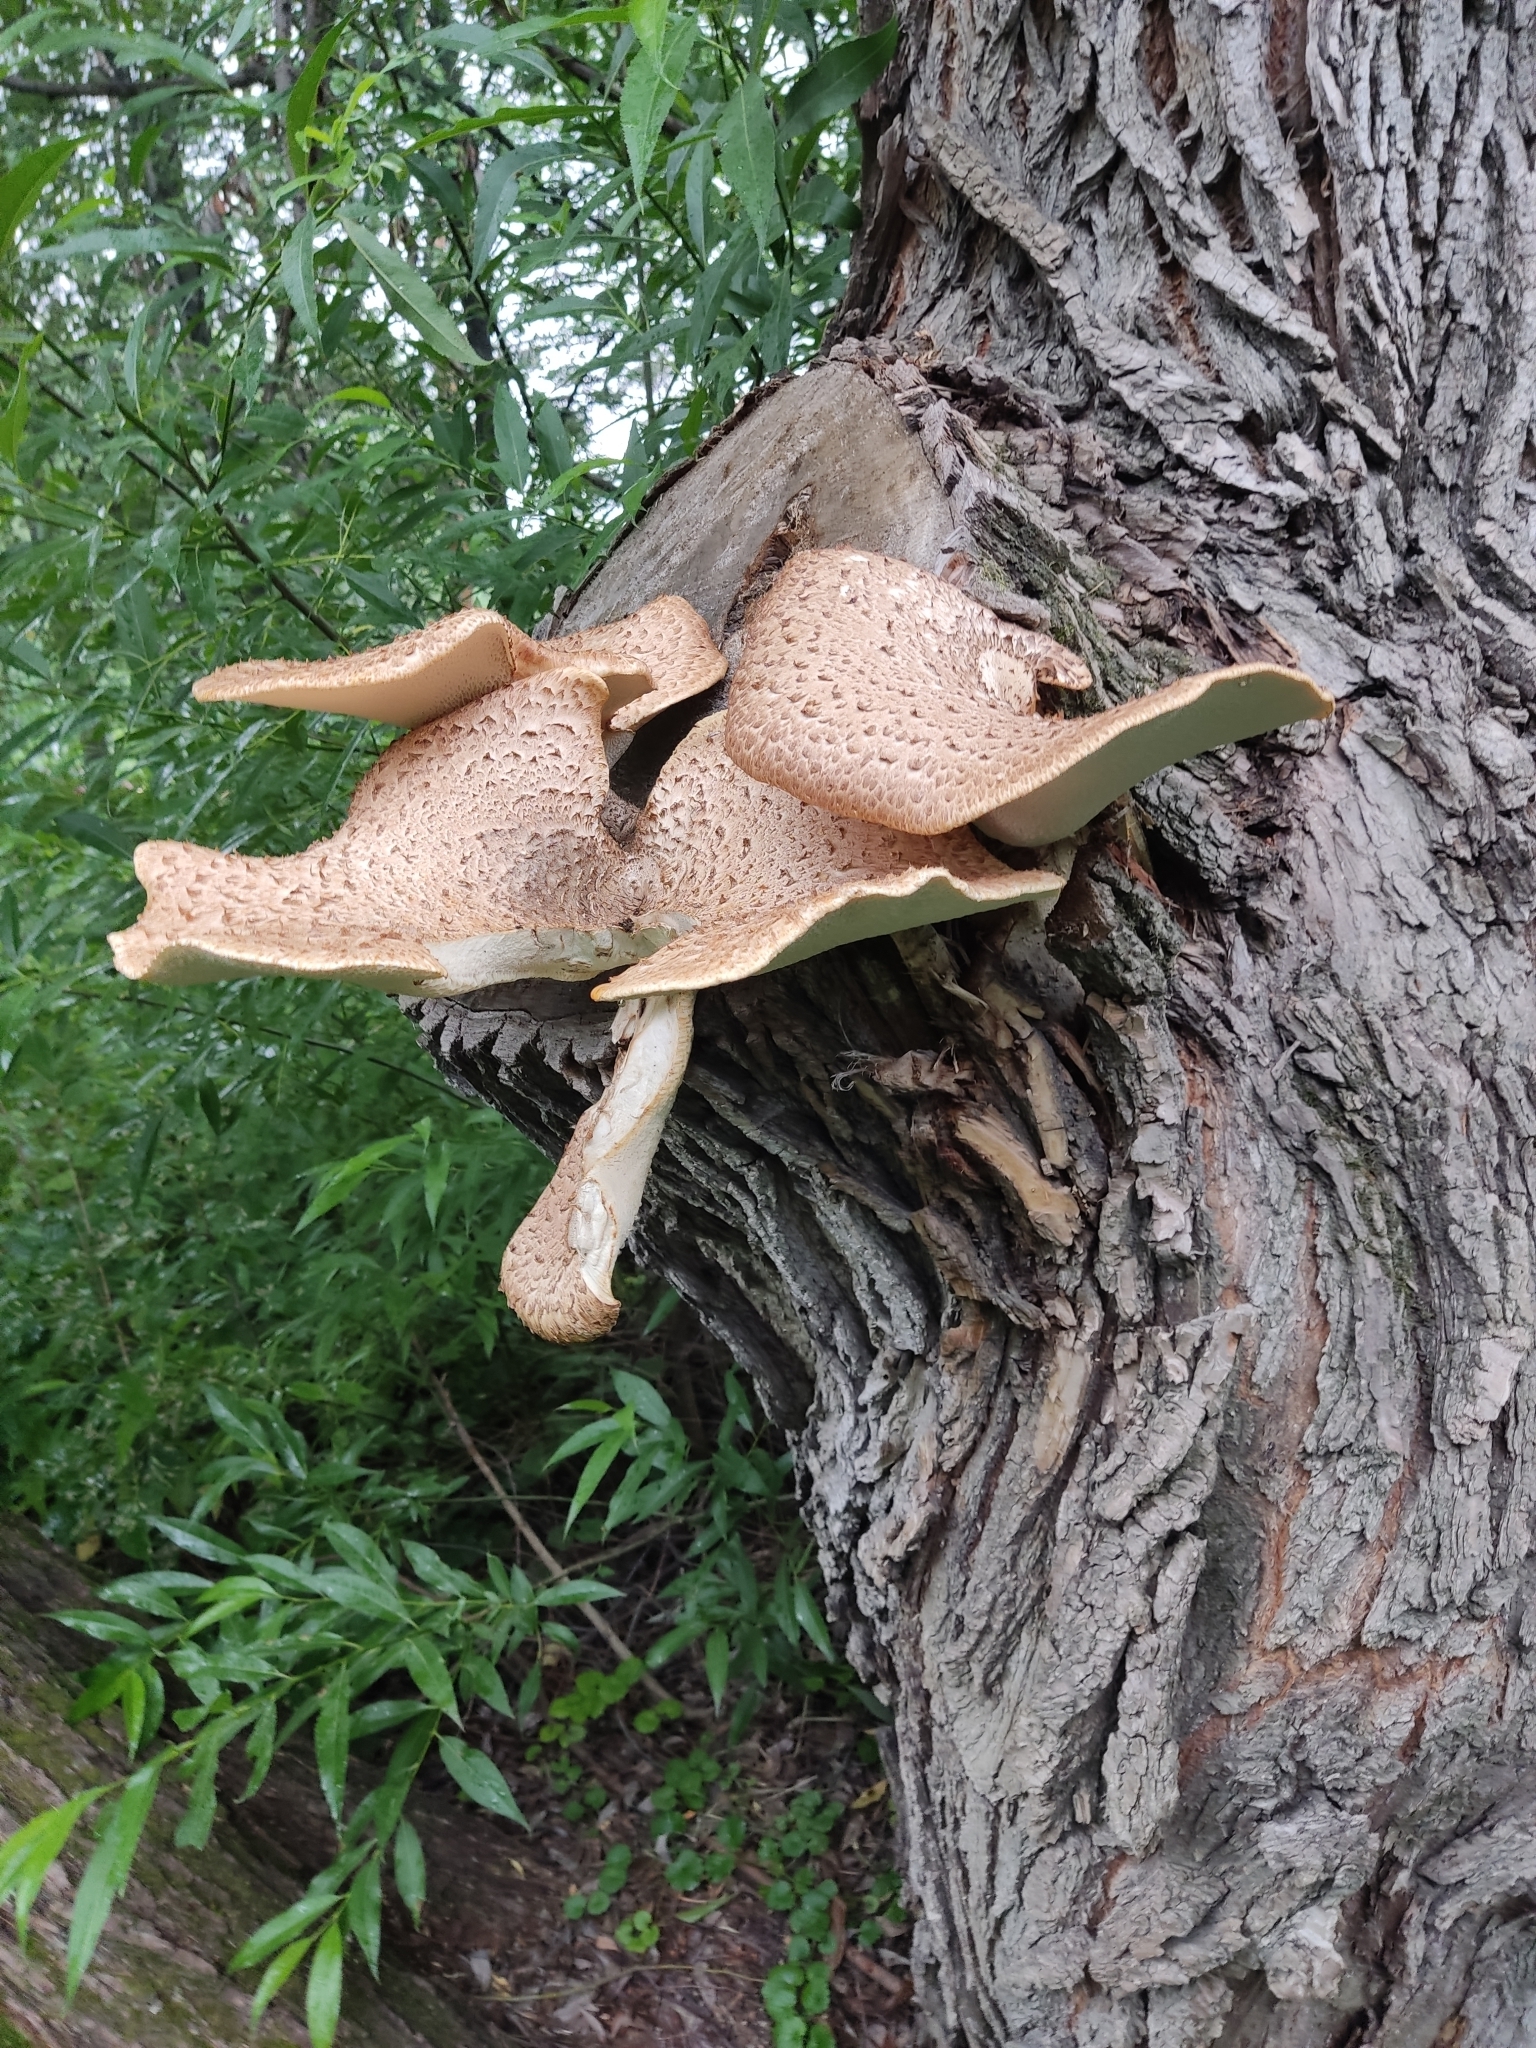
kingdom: Fungi
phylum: Basidiomycota
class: Agaricomycetes
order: Polyporales
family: Polyporaceae
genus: Cerioporus
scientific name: Cerioporus squamosus
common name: Dryad's saddle
